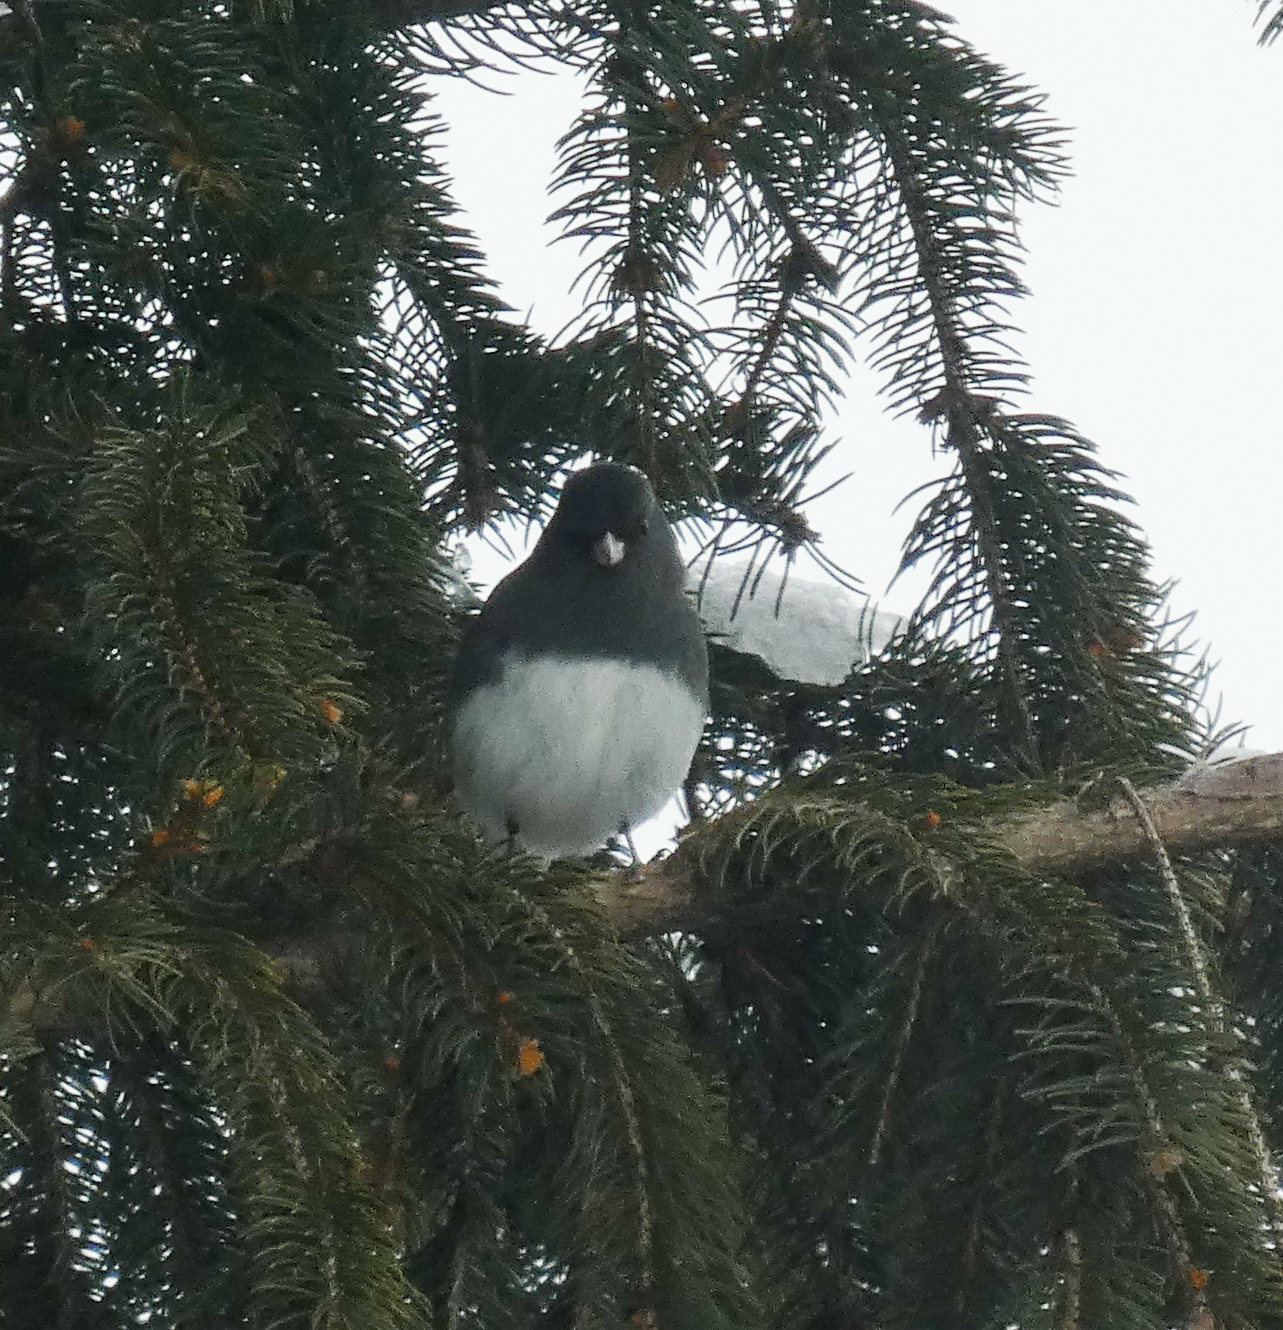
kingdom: Animalia
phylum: Chordata
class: Aves
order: Passeriformes
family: Passerellidae
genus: Junco
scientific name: Junco hyemalis
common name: Dark-eyed junco
